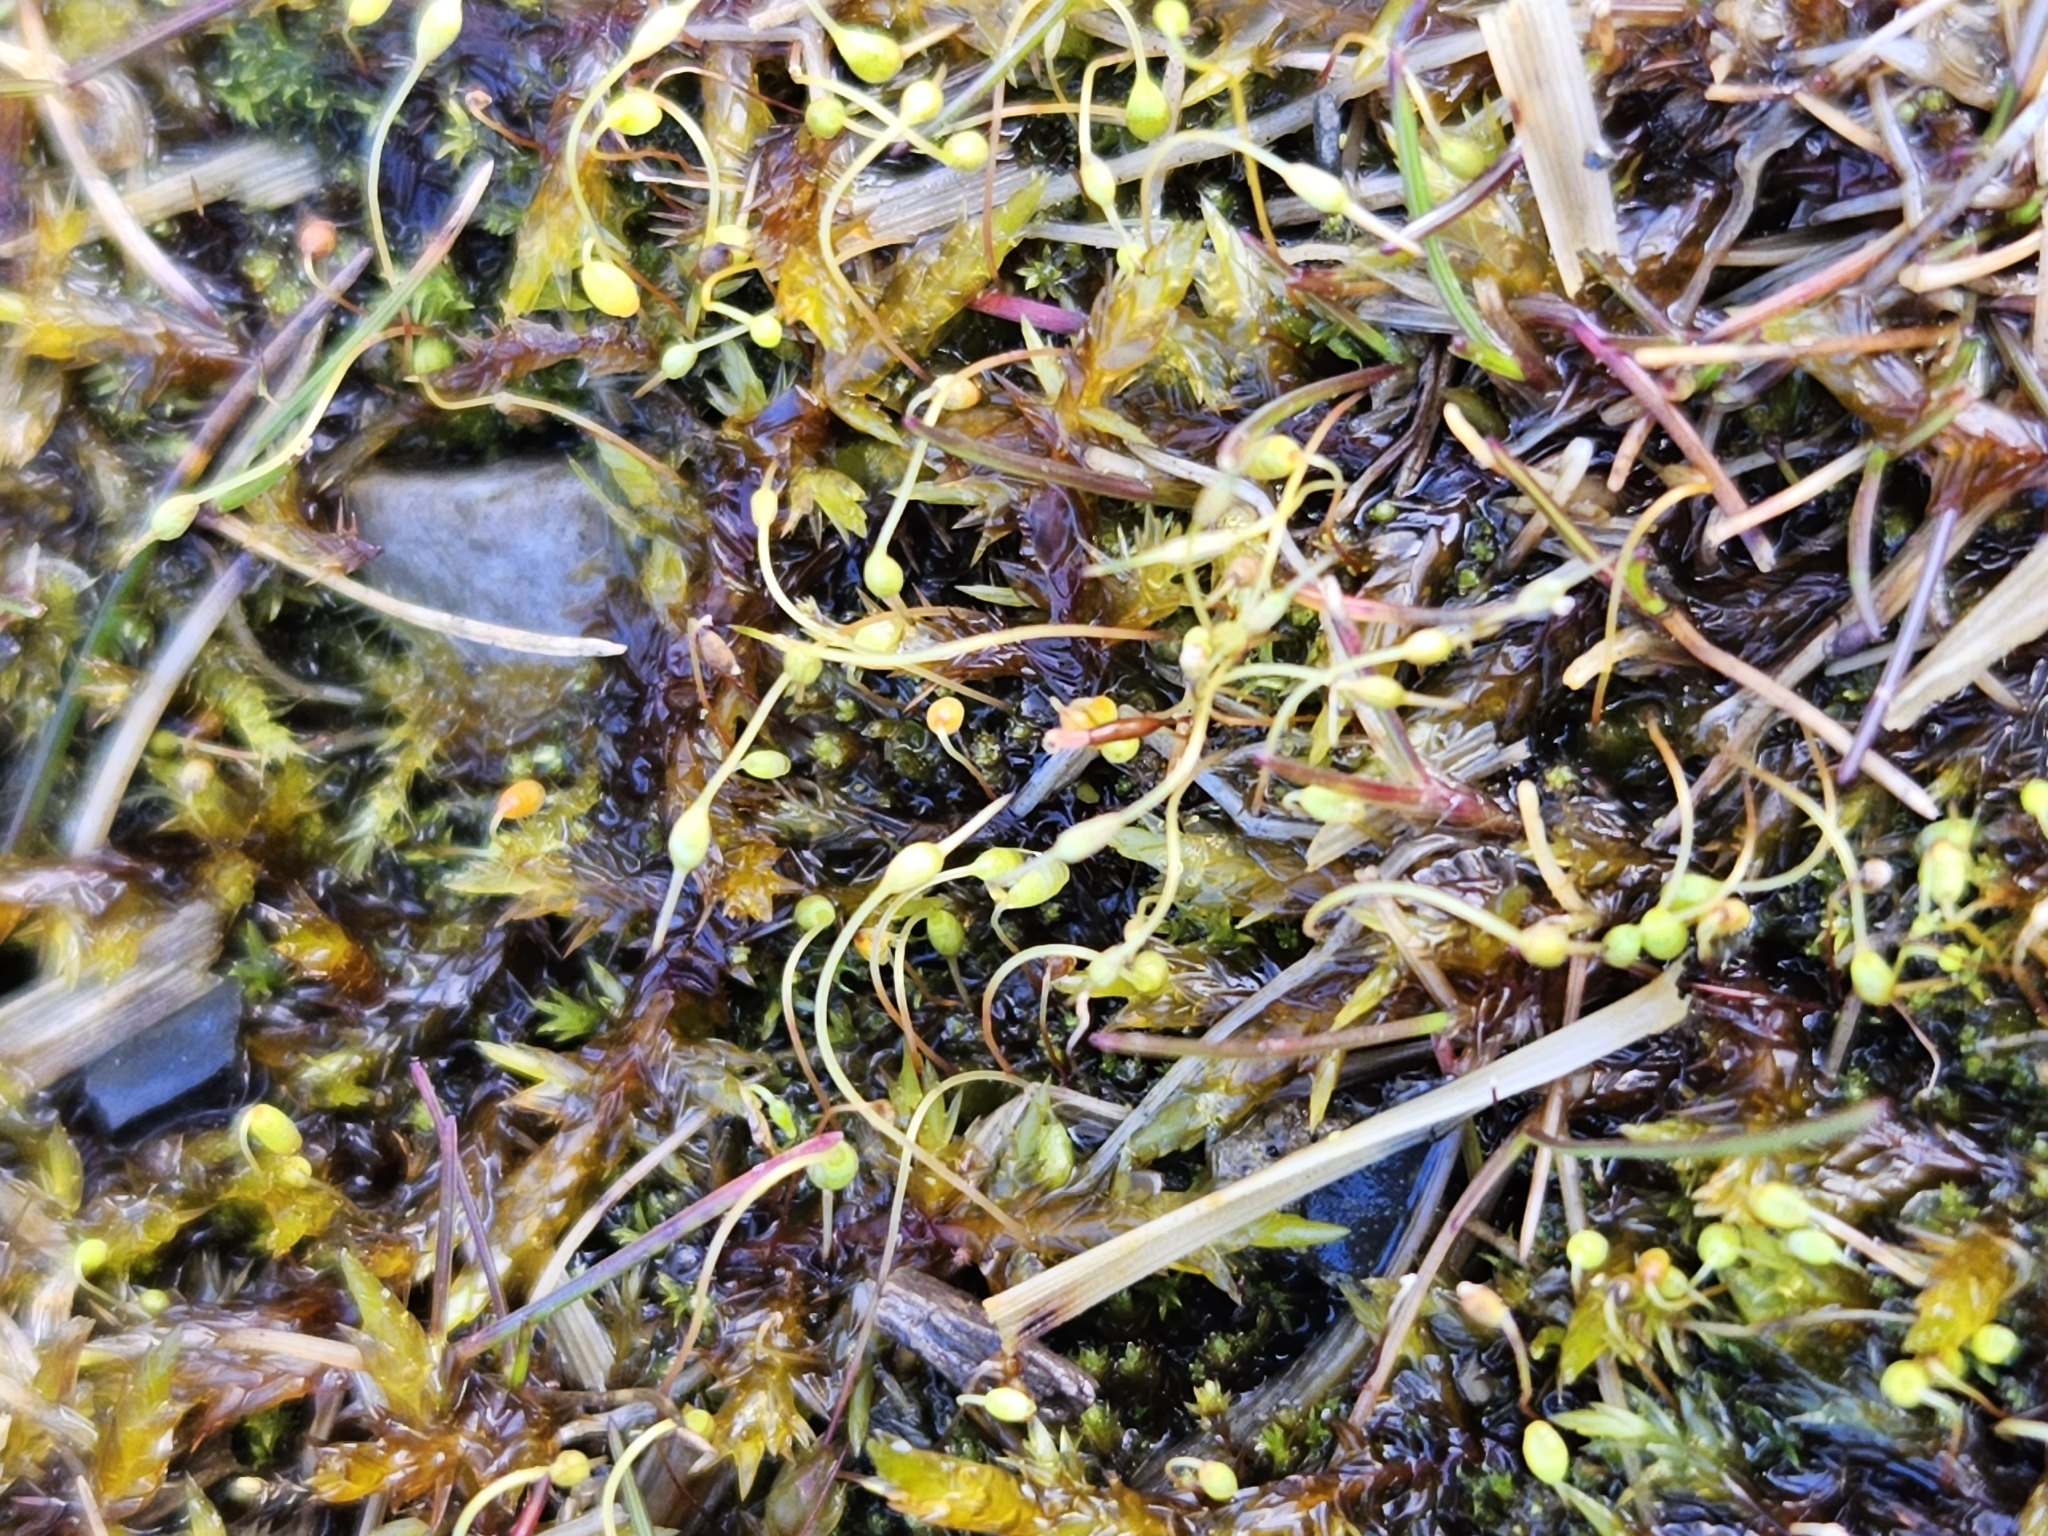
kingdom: Plantae
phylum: Bryophyta
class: Bryopsida
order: Funariales
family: Funariaceae
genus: Funaria
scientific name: Funaria hygrometrica
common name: Common cord moss
